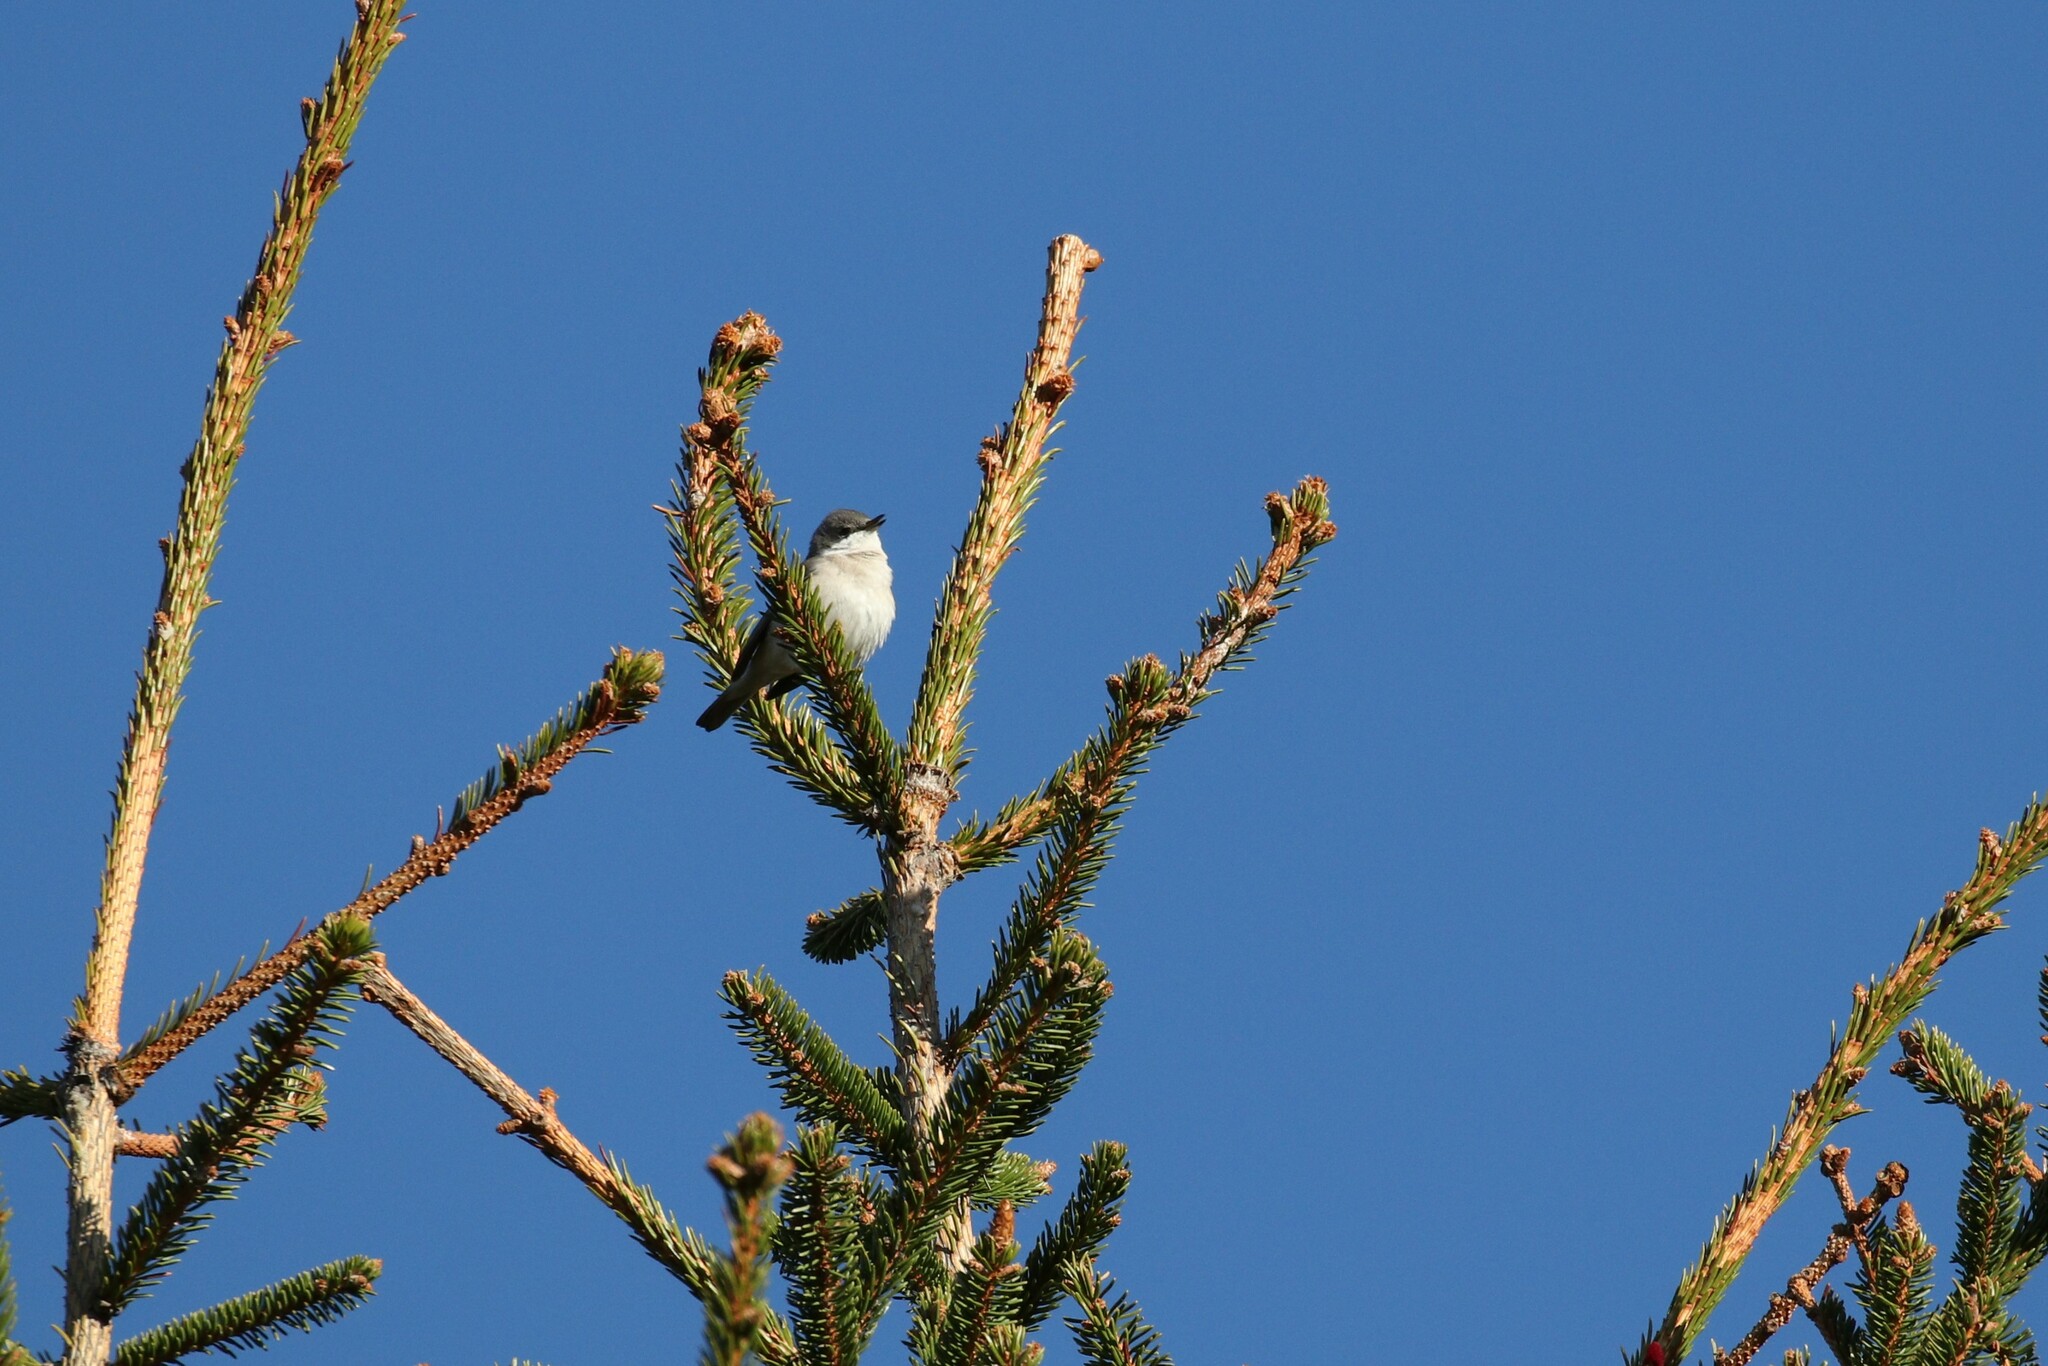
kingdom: Animalia
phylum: Chordata
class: Aves
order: Passeriformes
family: Sylviidae
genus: Sylvia
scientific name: Sylvia curruca
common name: Lesser whitethroat
